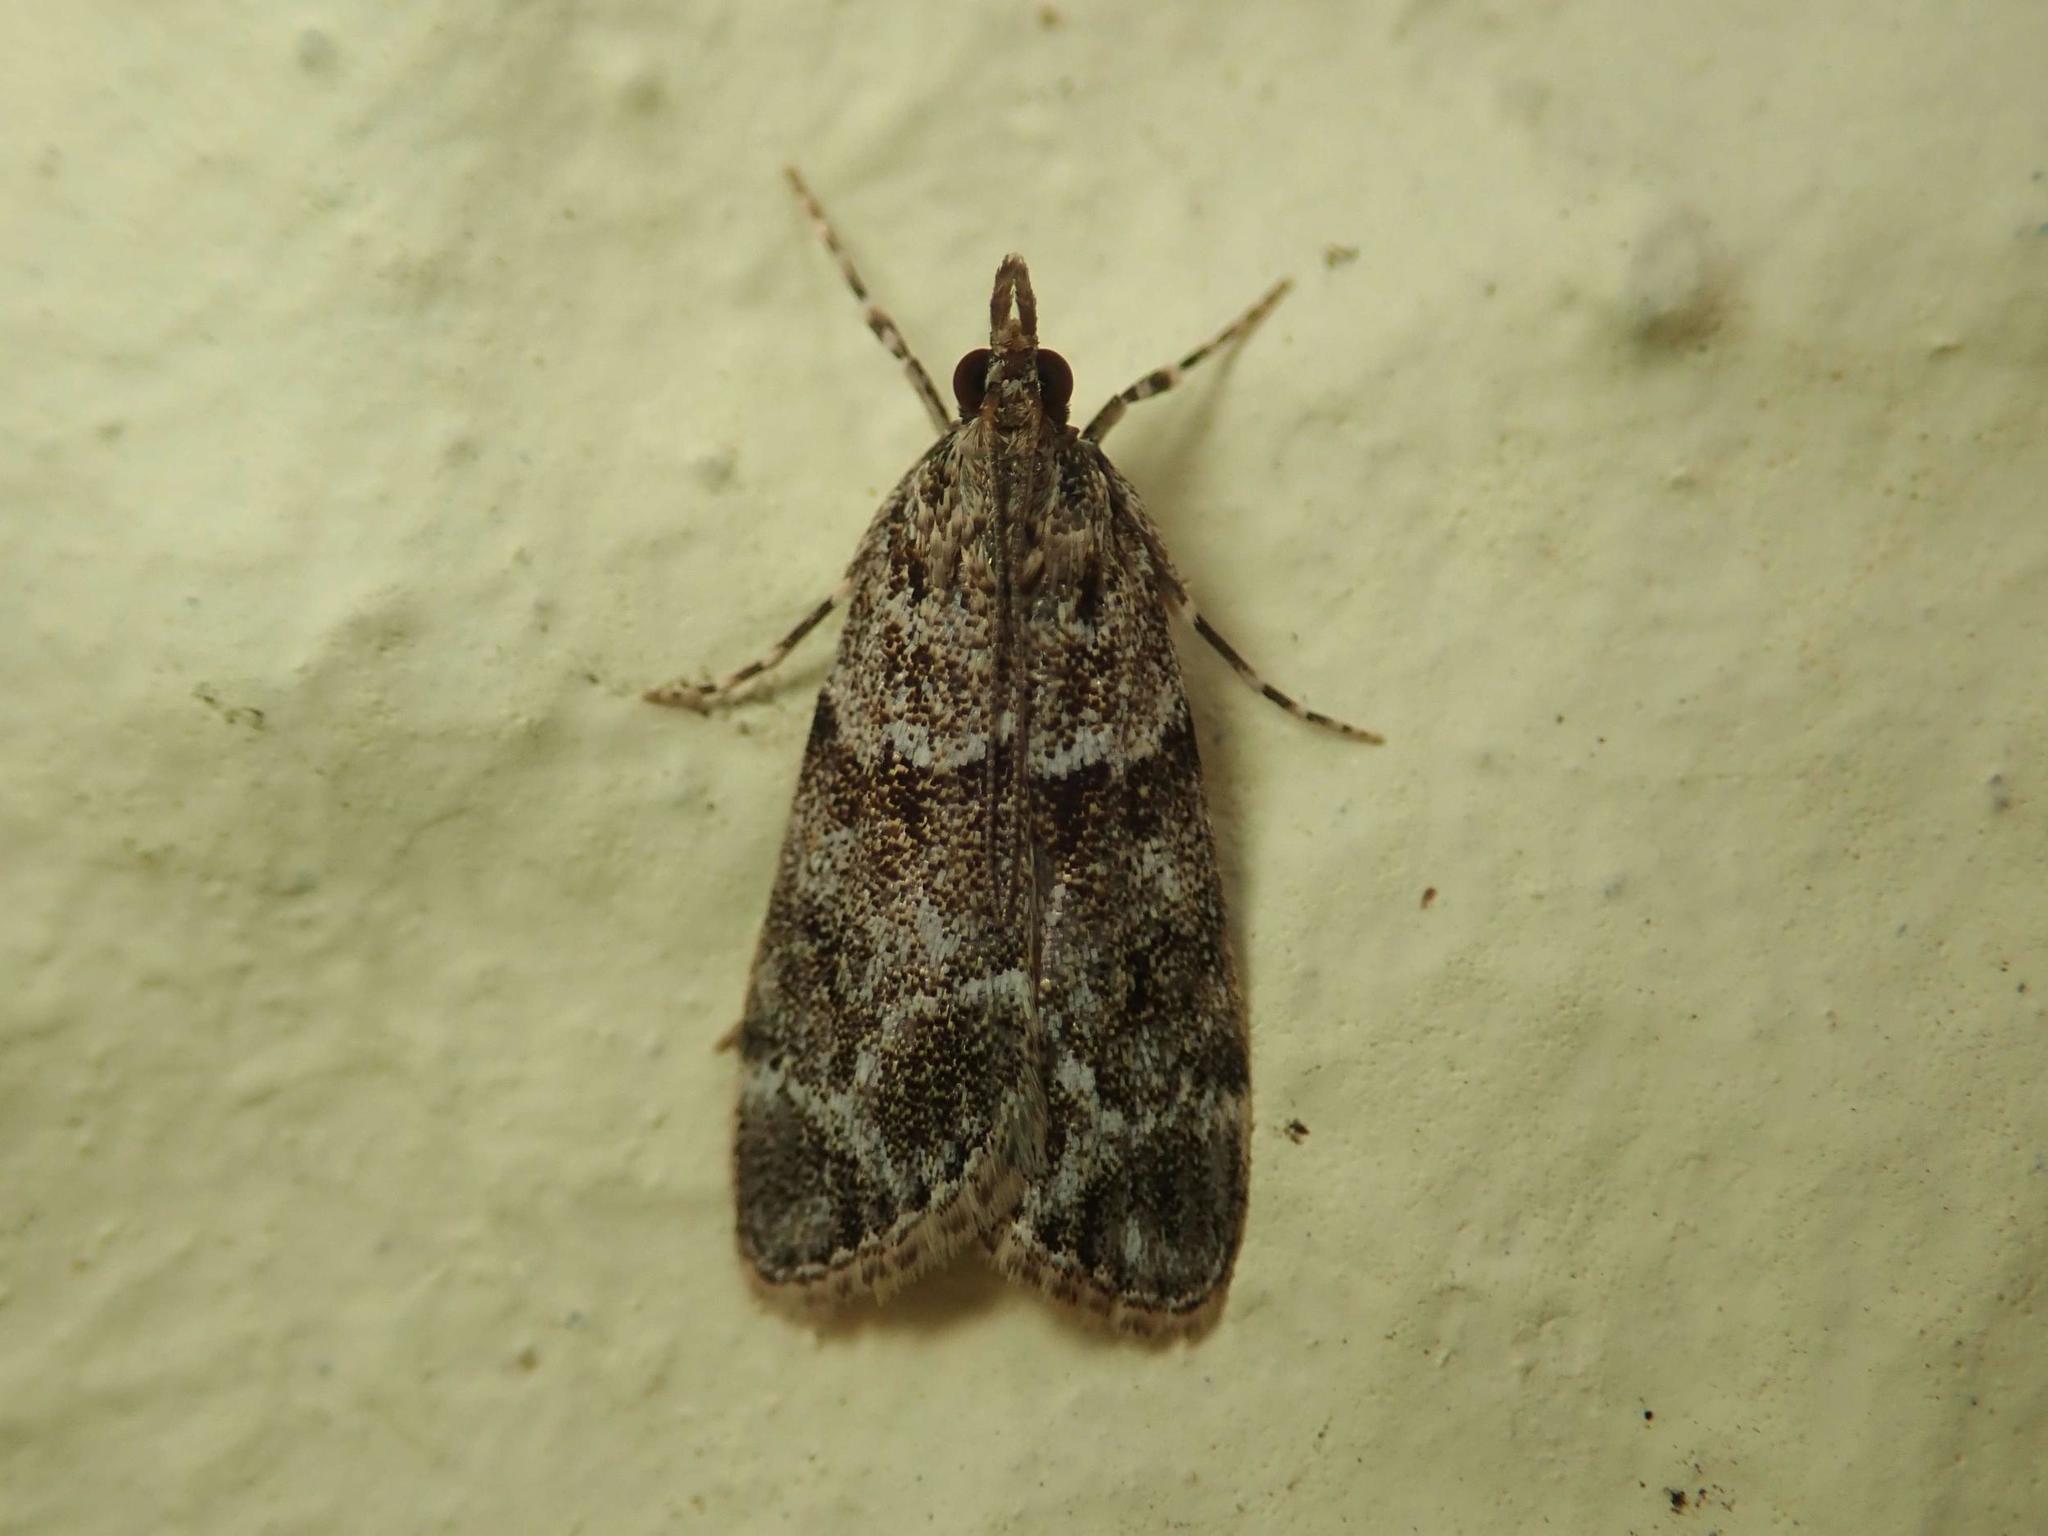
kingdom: Animalia
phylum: Arthropoda
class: Insecta
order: Lepidoptera
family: Crambidae
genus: Eudonia
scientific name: Eudonia mercurella
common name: Small grey
